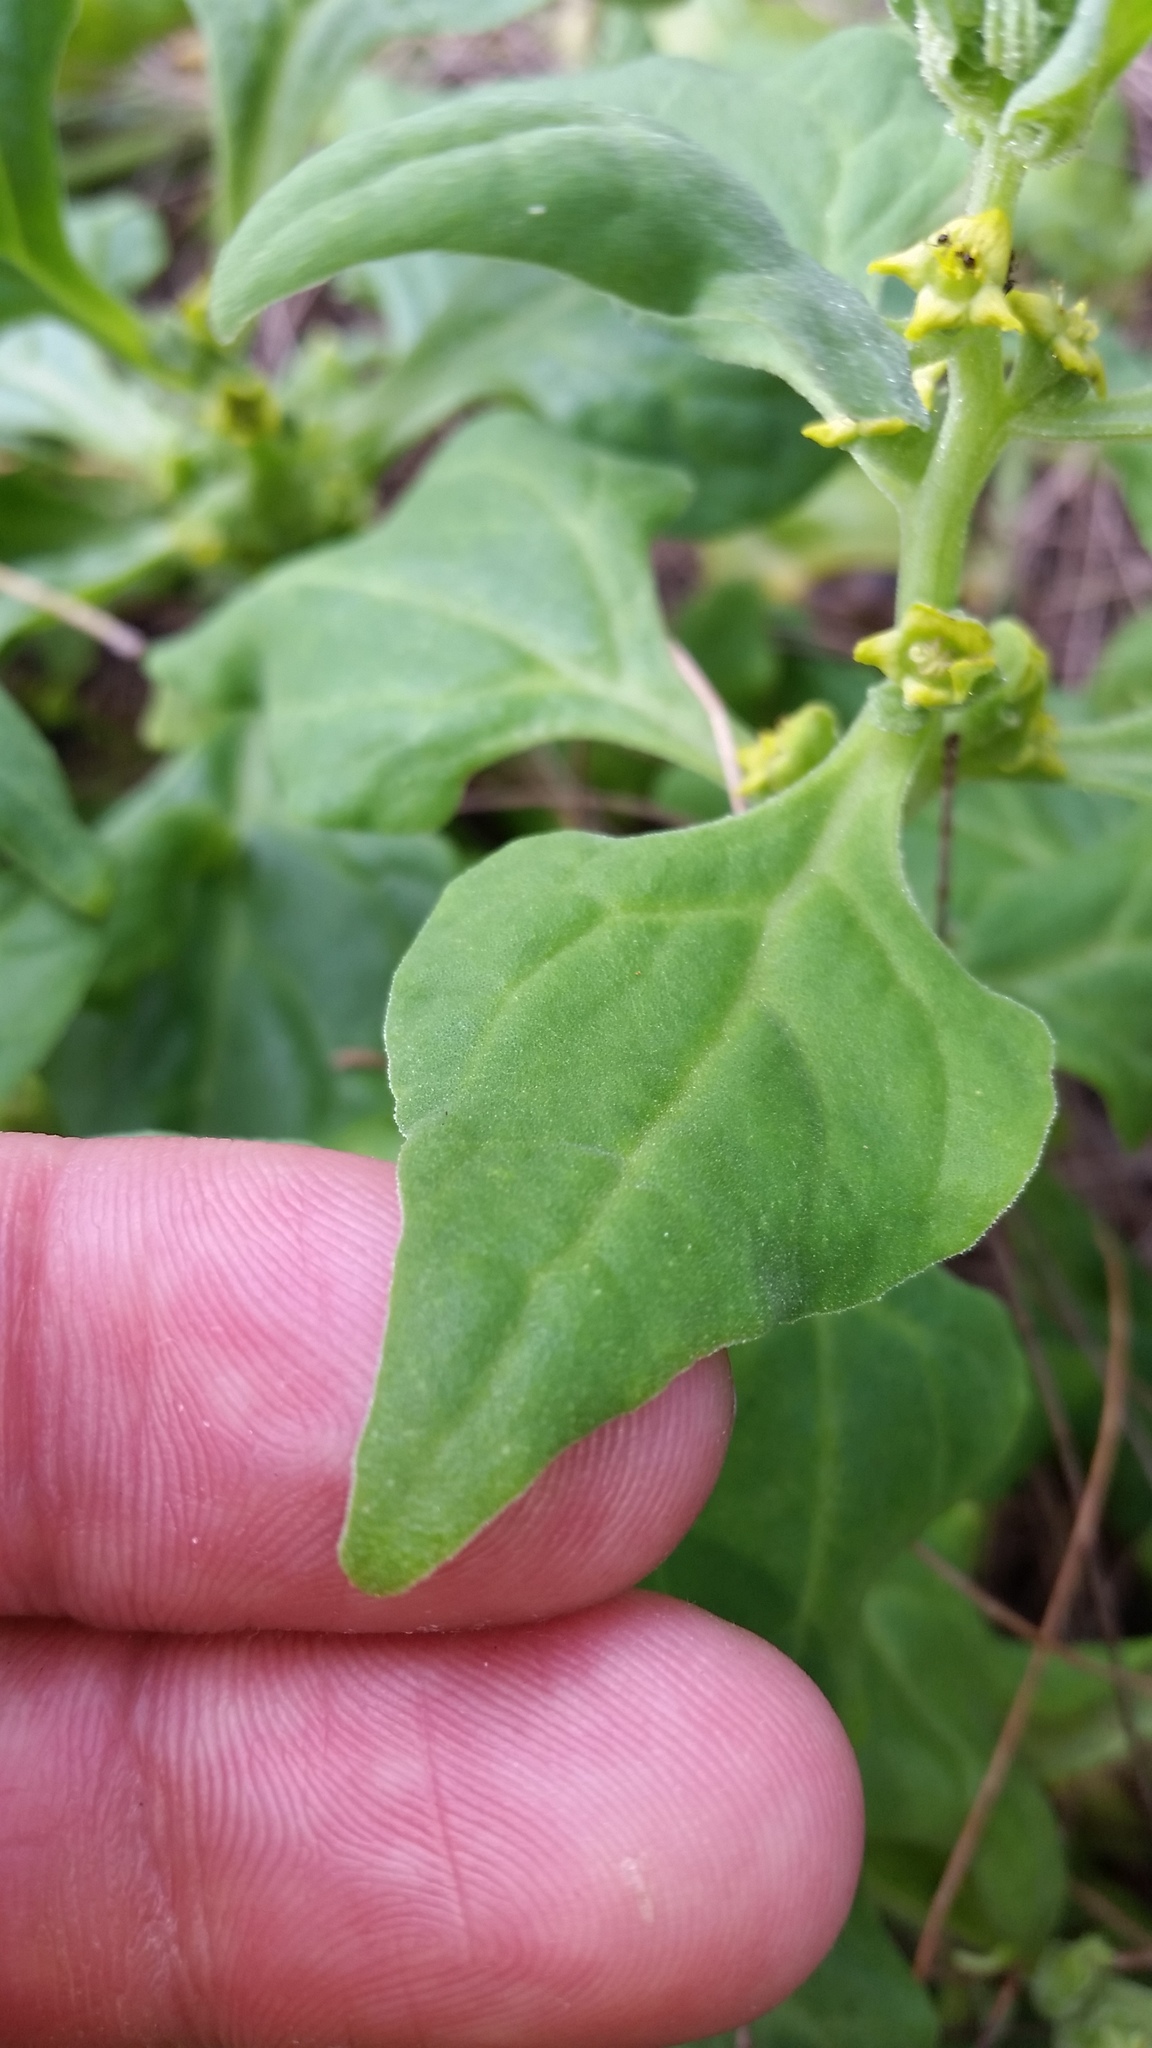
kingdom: Plantae
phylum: Tracheophyta
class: Magnoliopsida
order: Caryophyllales
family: Aizoaceae
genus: Tetragonia
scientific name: Tetragonia tetragonoides
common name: New zealand-spinach
